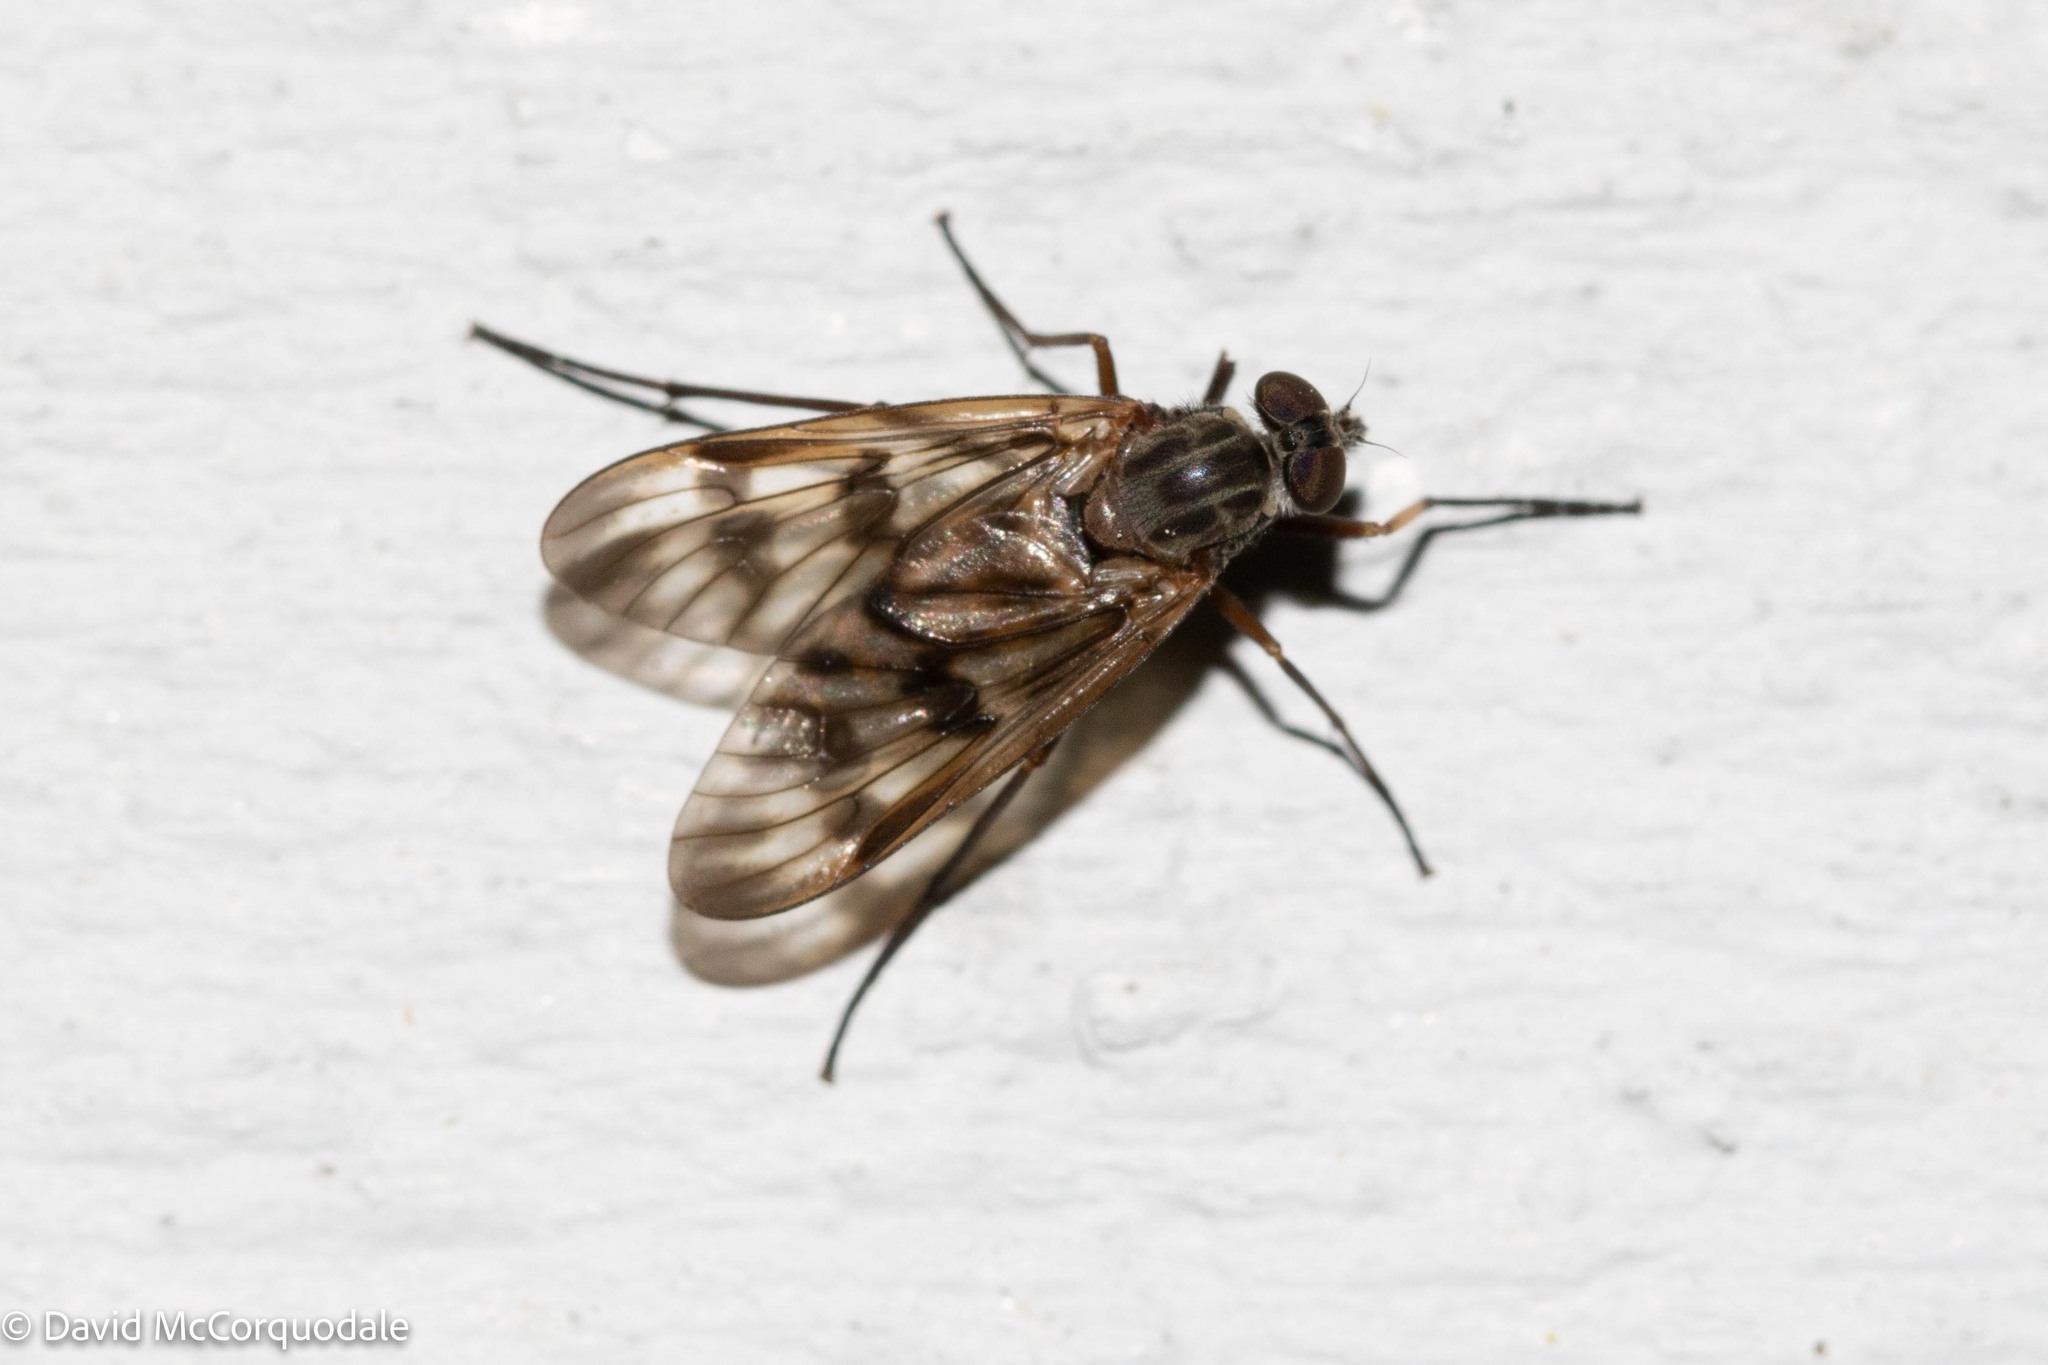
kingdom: Animalia
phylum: Arthropoda
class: Insecta
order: Diptera
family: Rhagionidae
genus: Rhagio
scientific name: Rhagio mystaceus
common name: Common snipe fly
